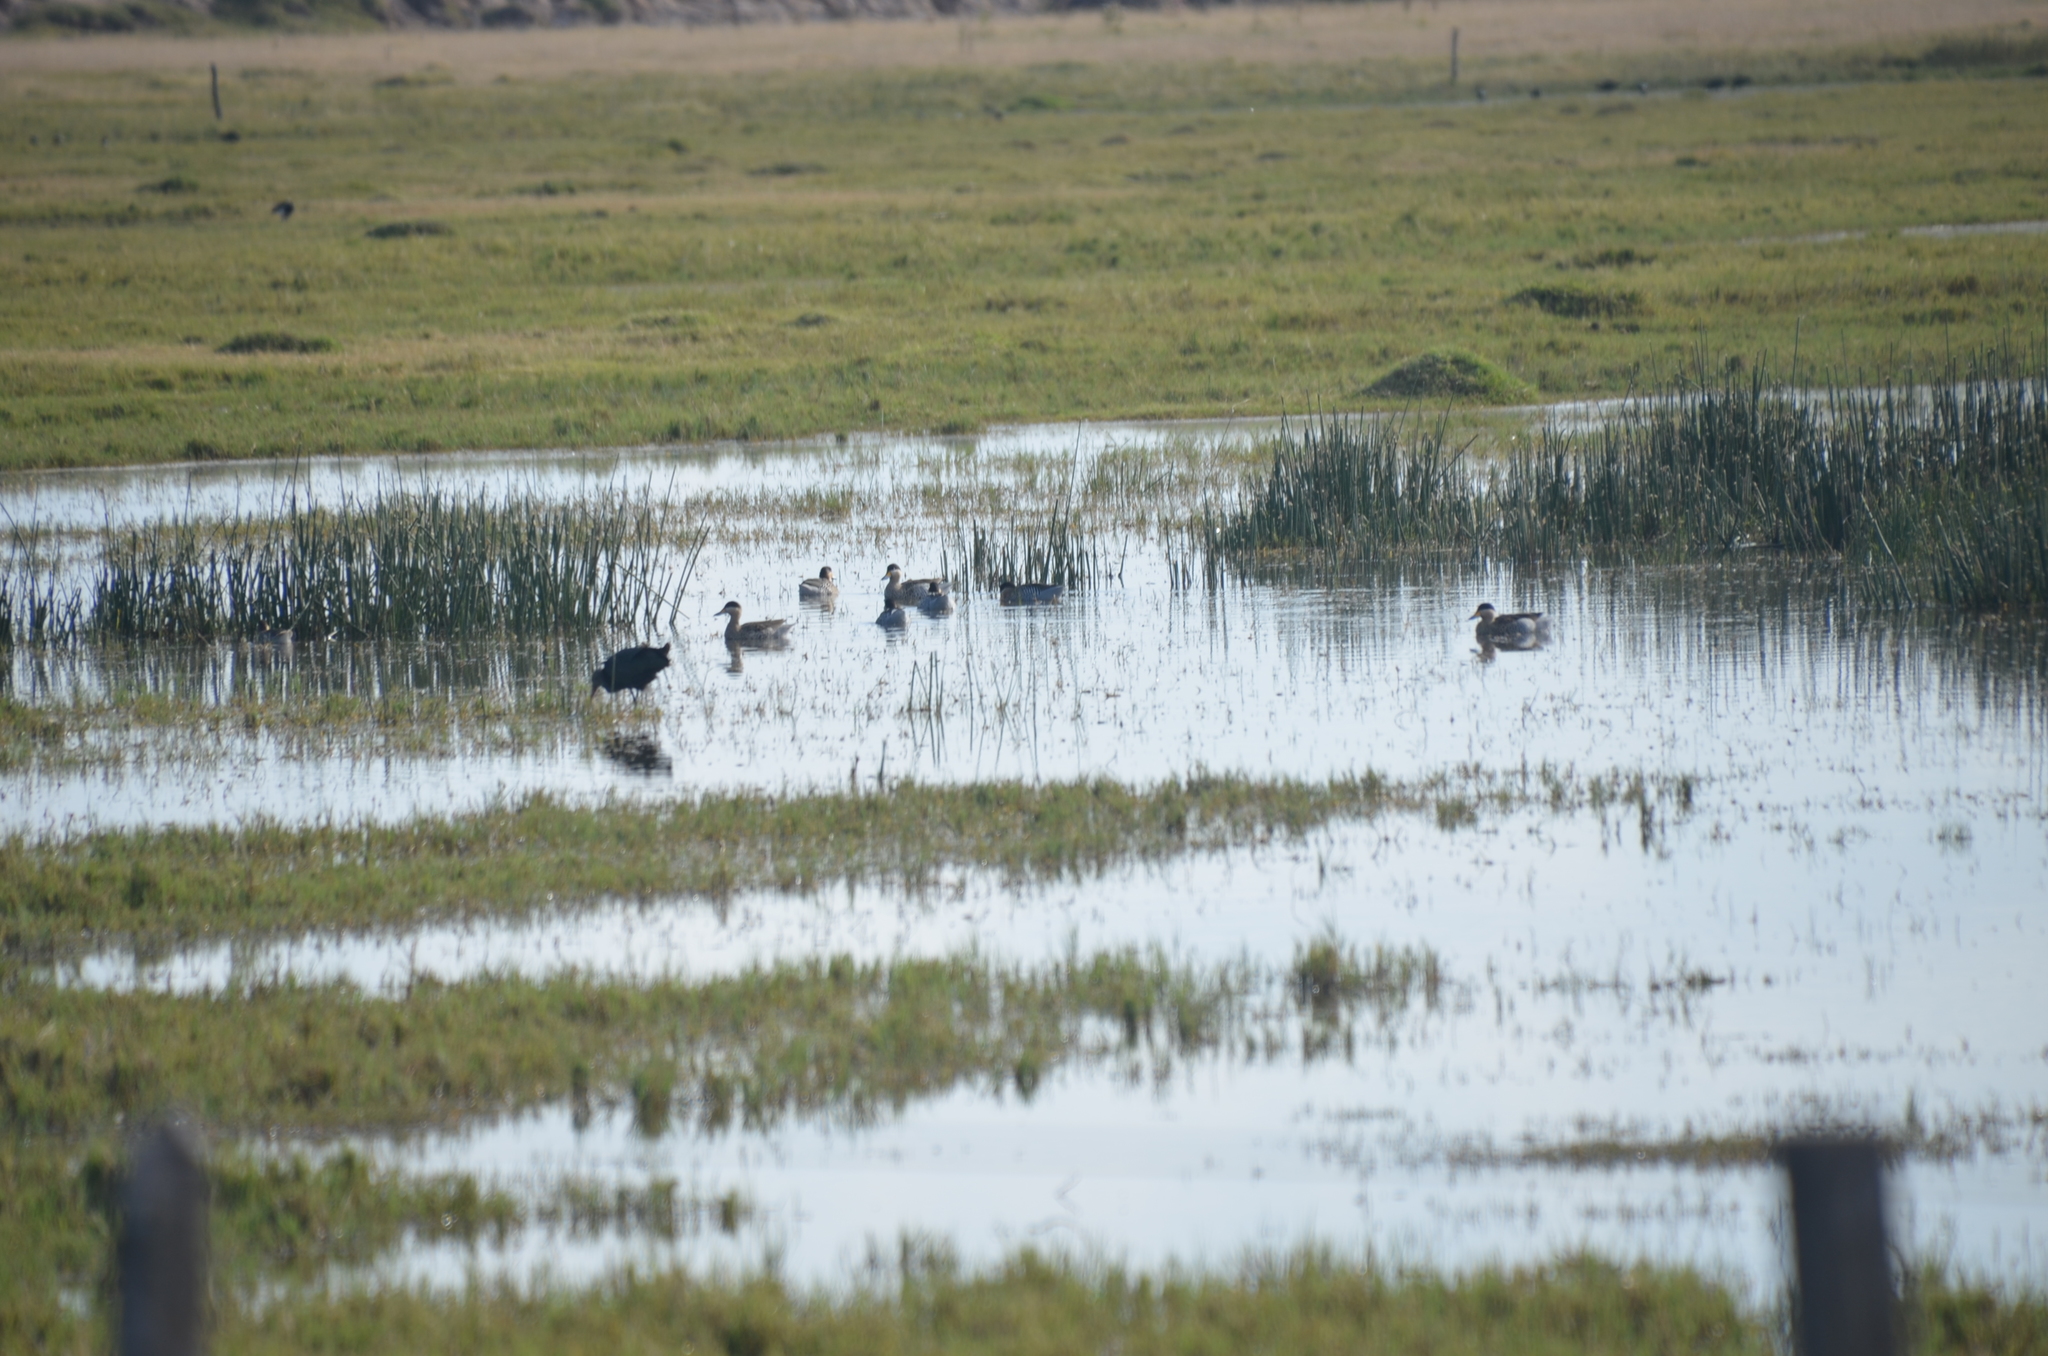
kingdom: Animalia
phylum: Chordata
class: Aves
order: Anseriformes
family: Anatidae
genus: Spatula
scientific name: Spatula versicolor
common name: Silver teal
